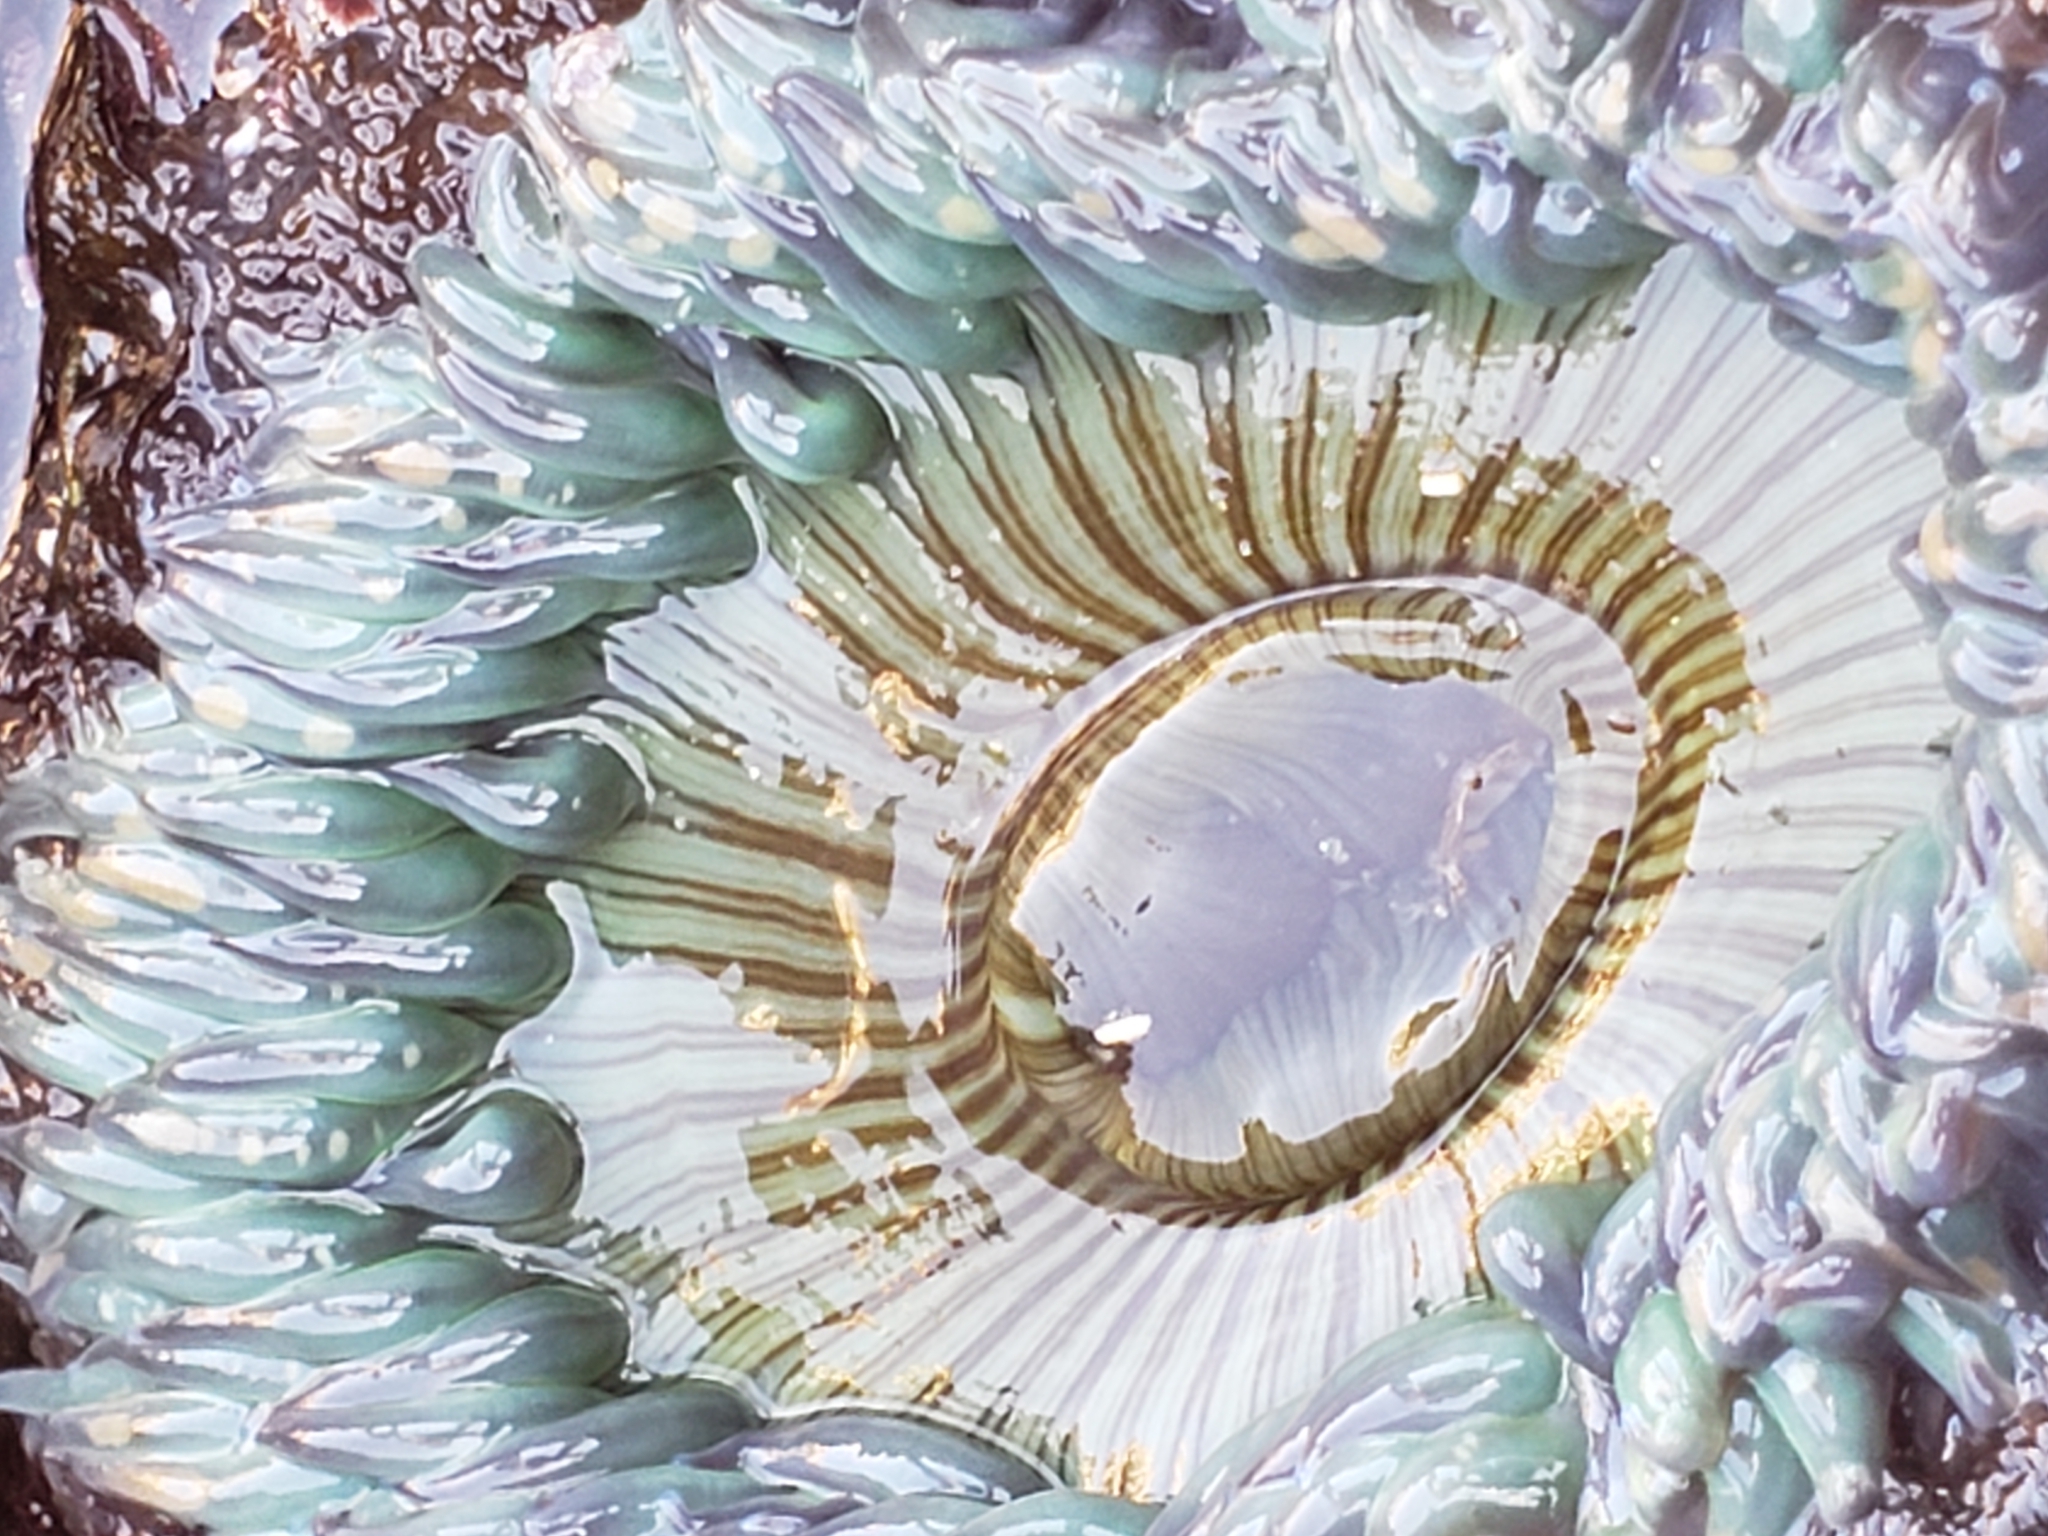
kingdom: Animalia
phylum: Cnidaria
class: Anthozoa
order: Actiniaria
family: Actiniidae
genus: Anthopleura
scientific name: Anthopleura sola
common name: Sun anemone
